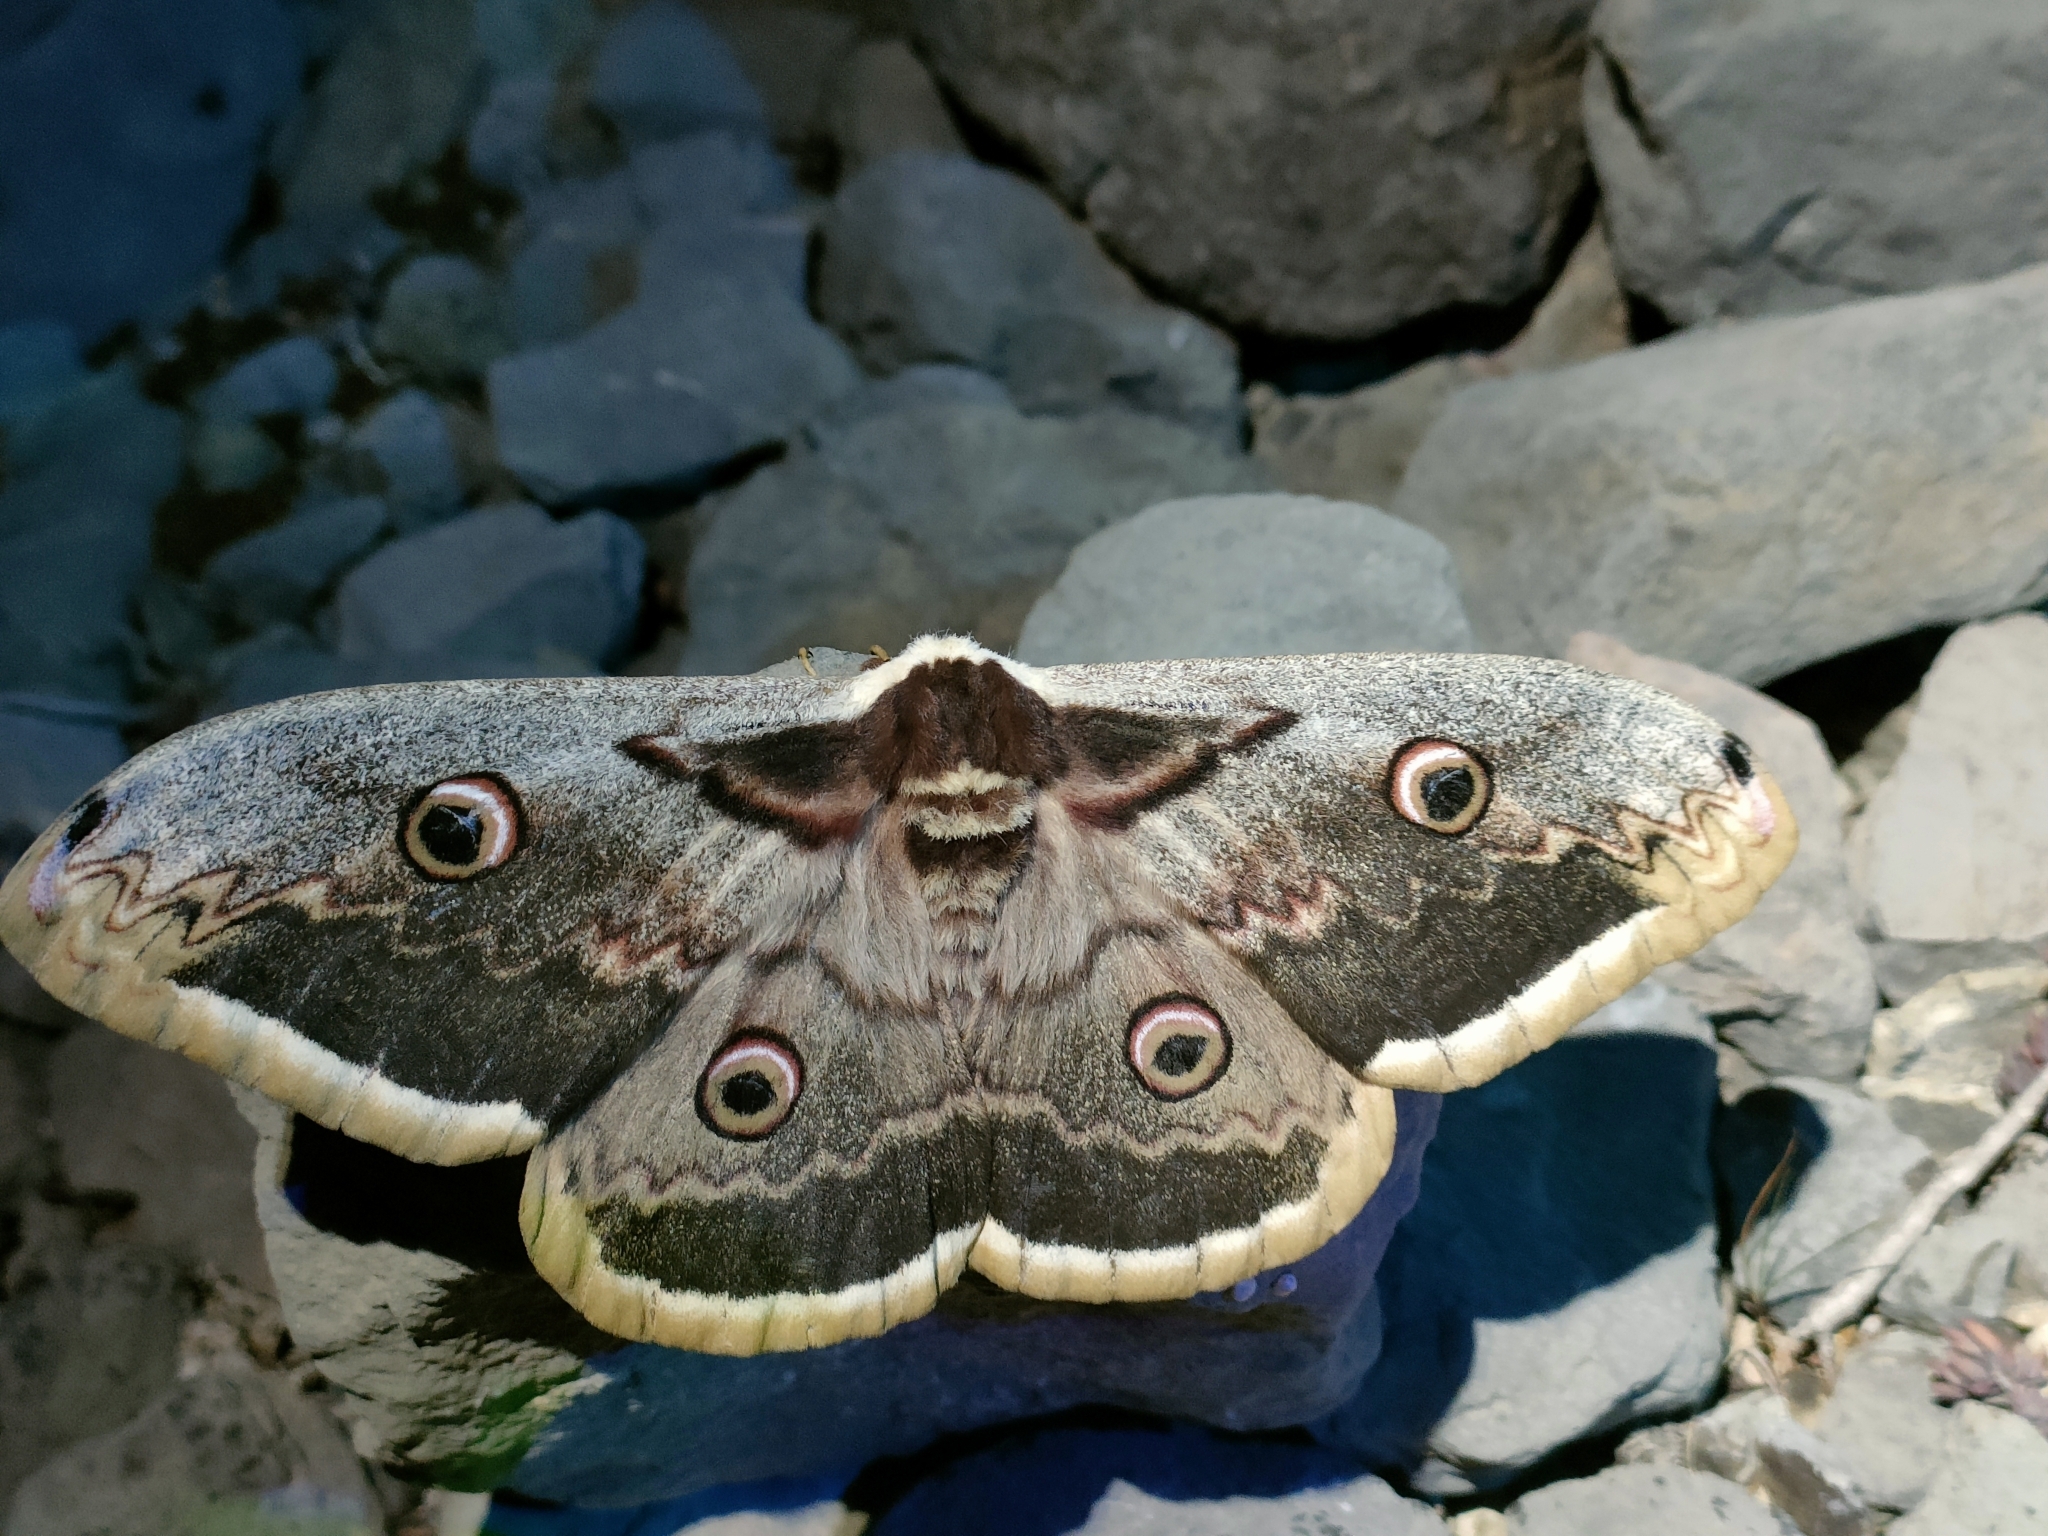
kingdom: Animalia
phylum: Arthropoda
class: Insecta
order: Lepidoptera
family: Saturniidae
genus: Saturnia
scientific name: Saturnia pyri
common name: Great peacock moth
